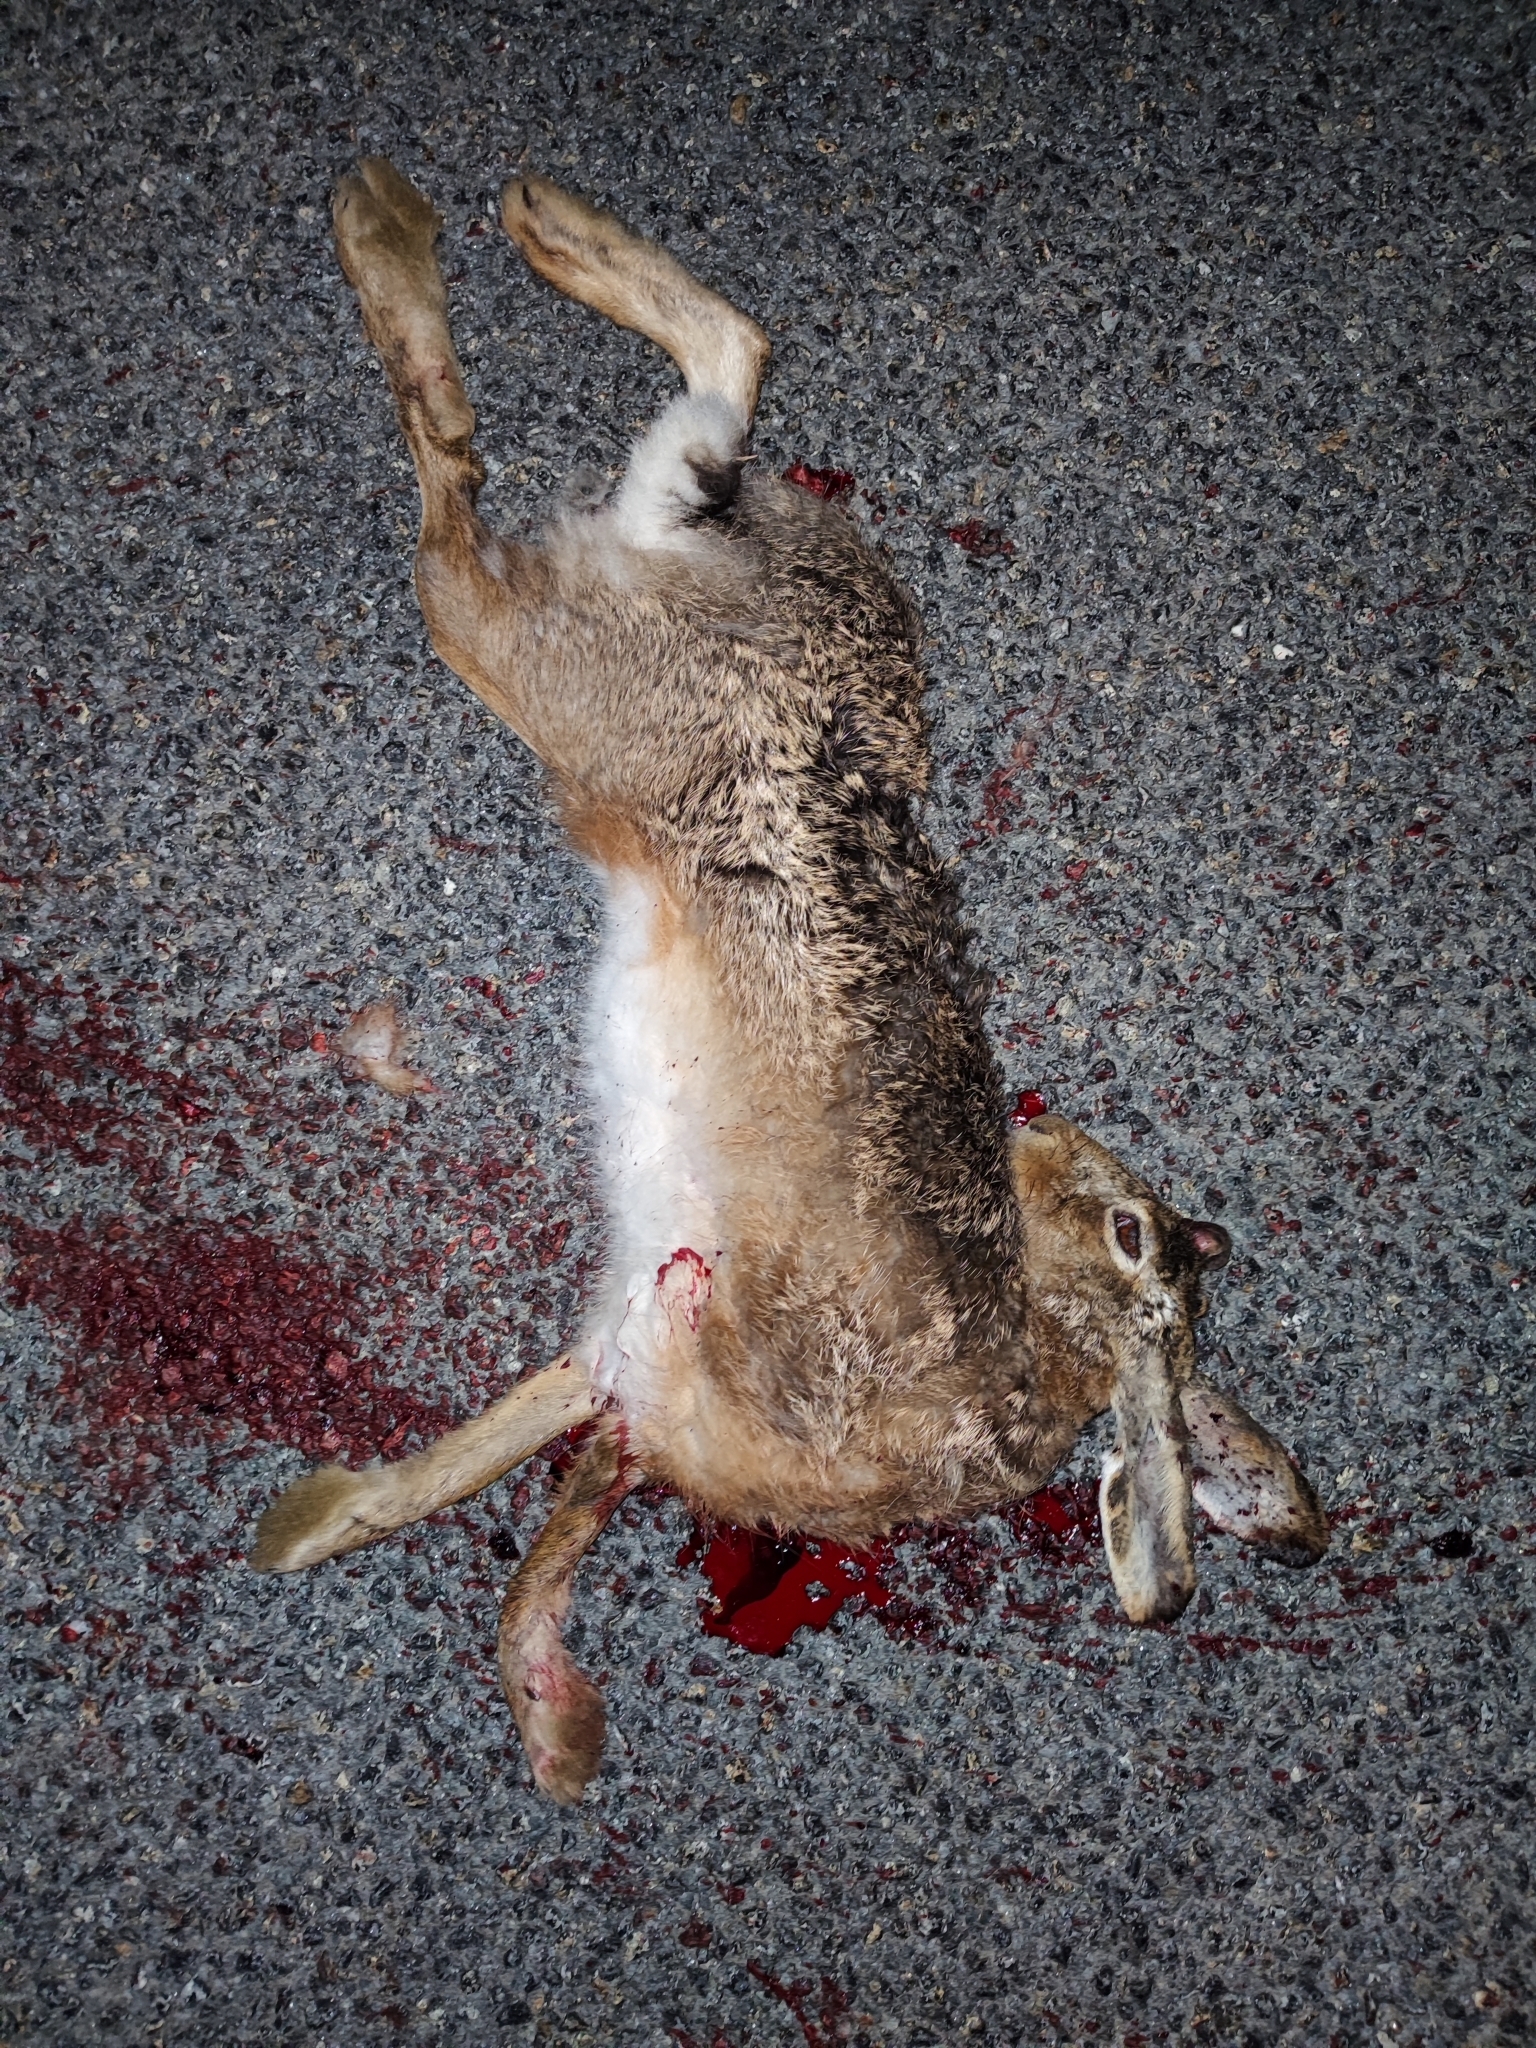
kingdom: Animalia
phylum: Chordata
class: Mammalia
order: Lagomorpha
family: Leporidae
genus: Lepus
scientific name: Lepus europaeus
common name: European hare
